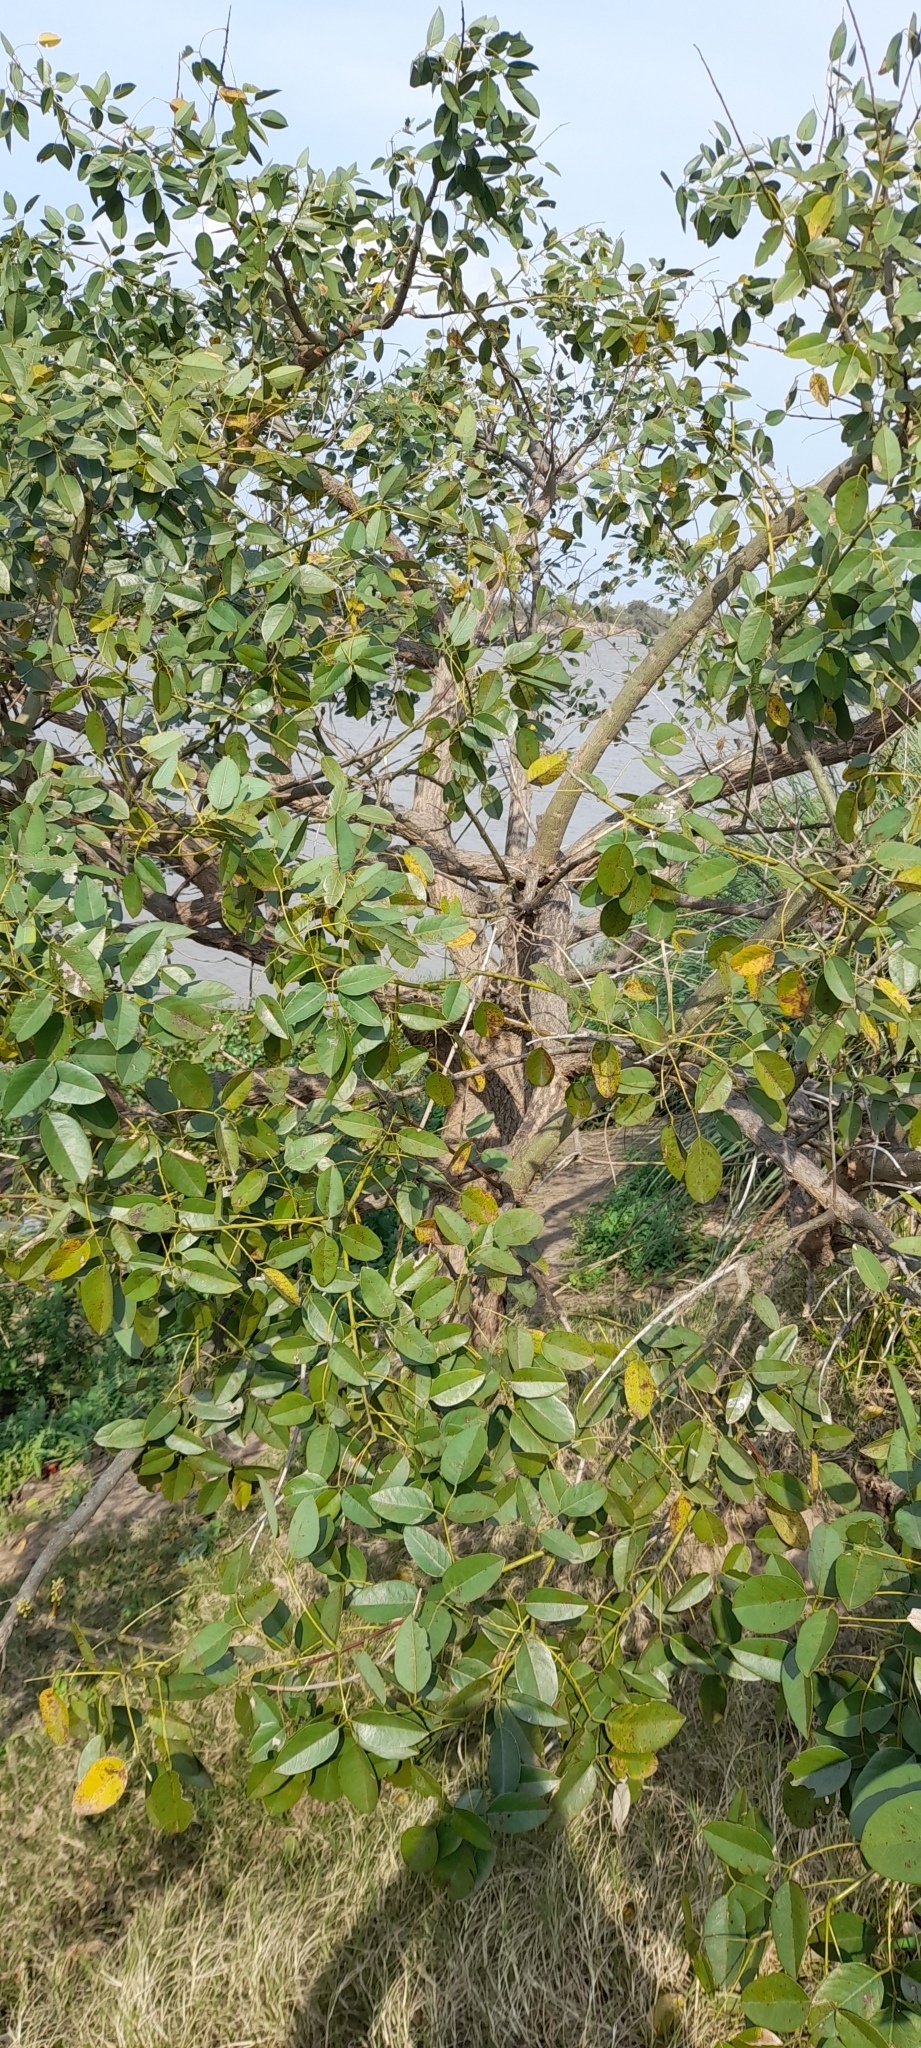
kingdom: Plantae
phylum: Tracheophyta
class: Magnoliopsida
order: Fabales
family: Fabaceae
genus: Erythrina
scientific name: Erythrina crista-galli
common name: Cockspur coral tree
